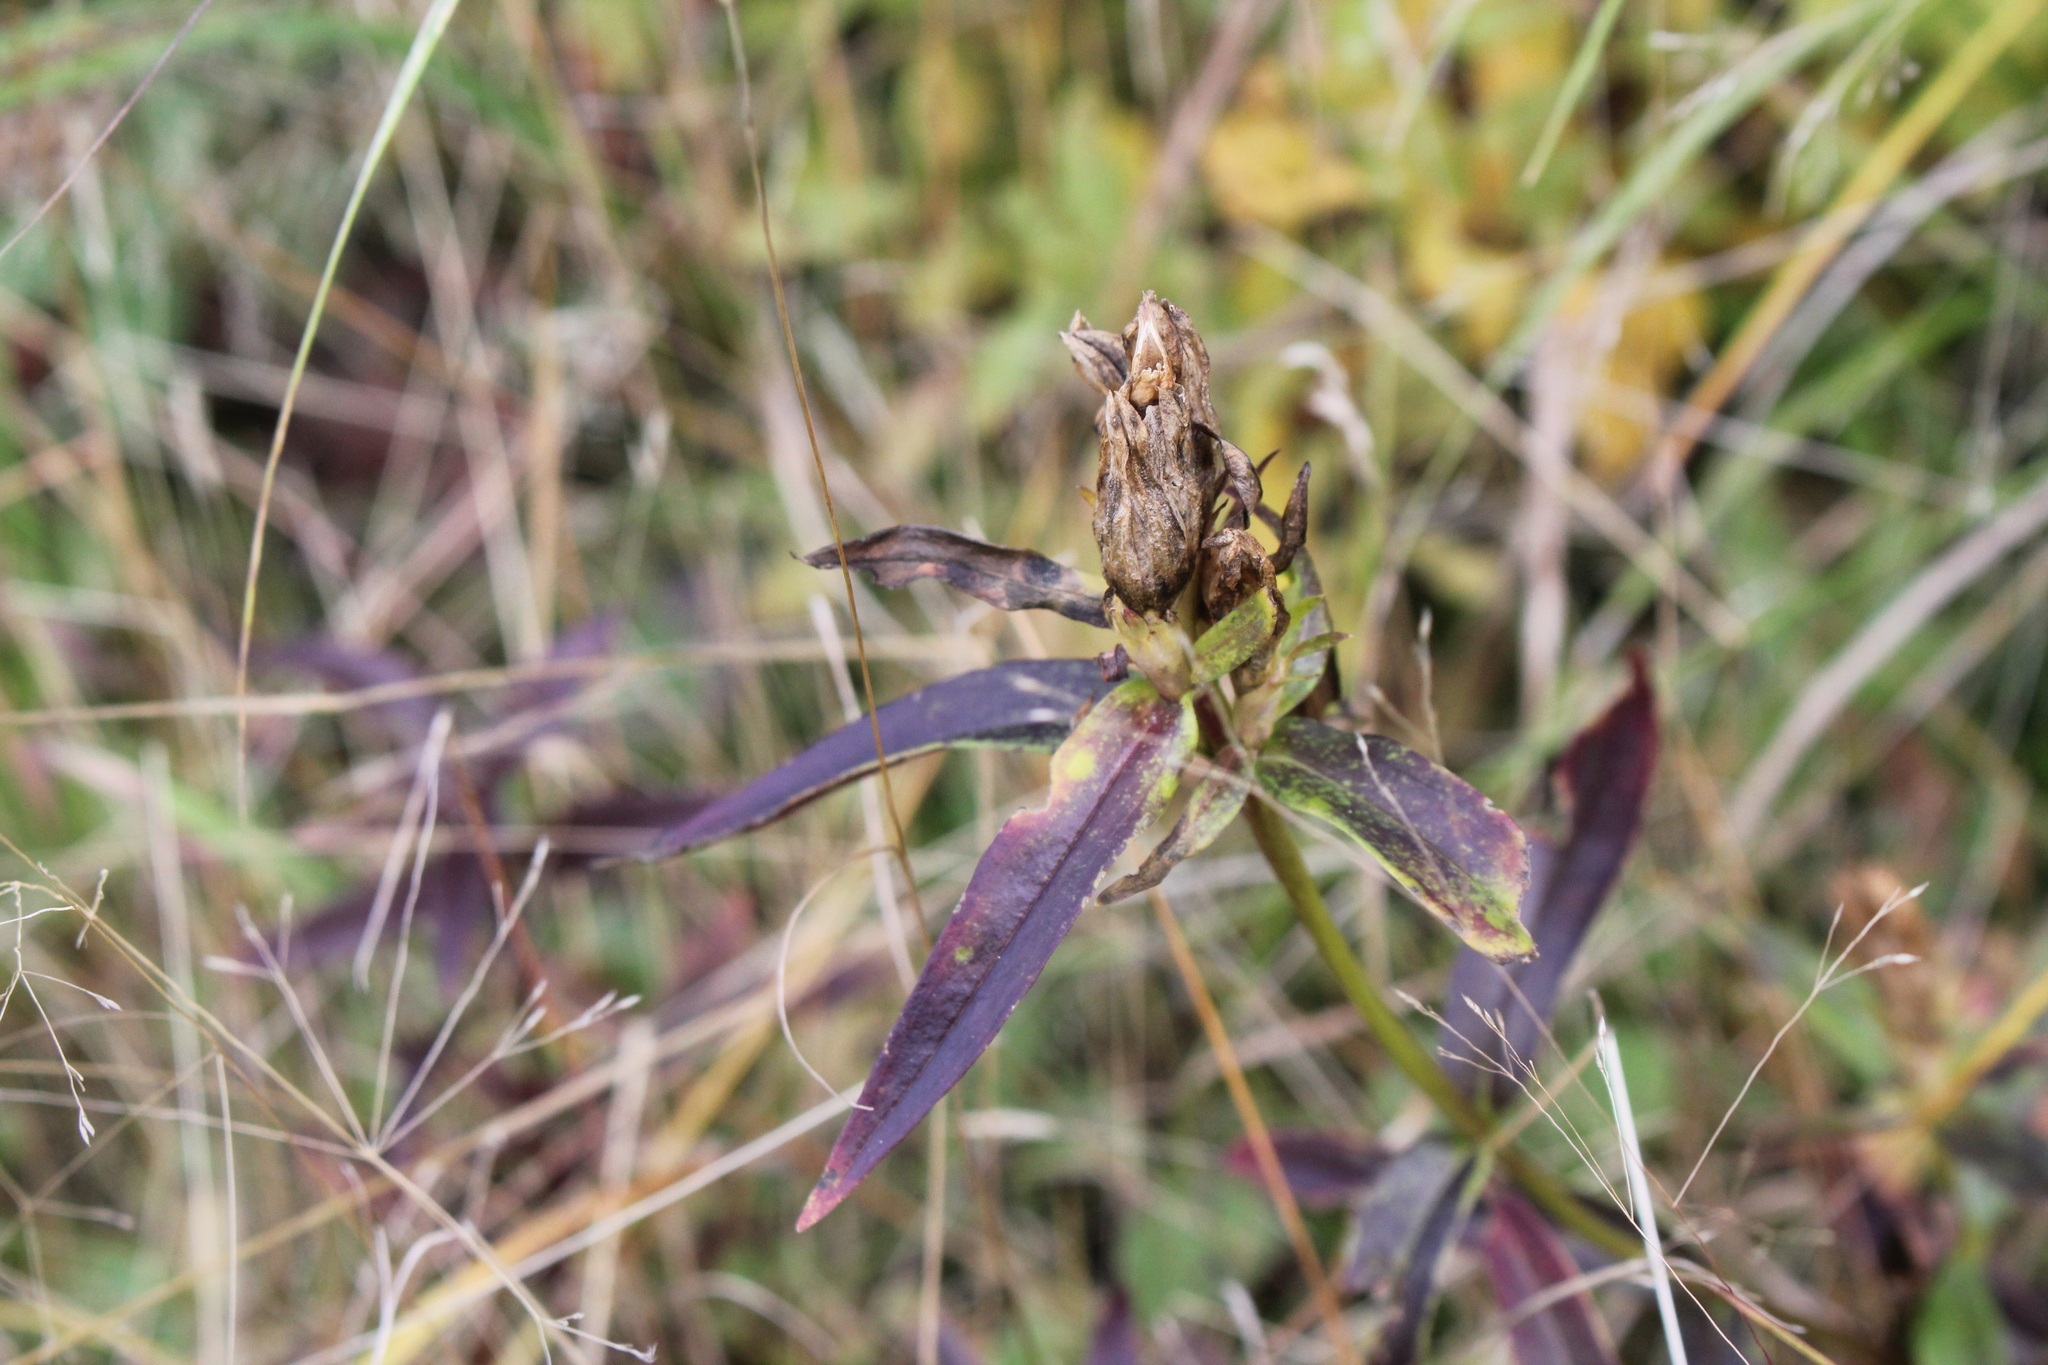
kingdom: Plantae
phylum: Tracheophyta
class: Magnoliopsida
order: Gentianales
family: Gentianaceae
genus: Gentiana
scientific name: Gentiana linearis
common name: Bastard gentian
